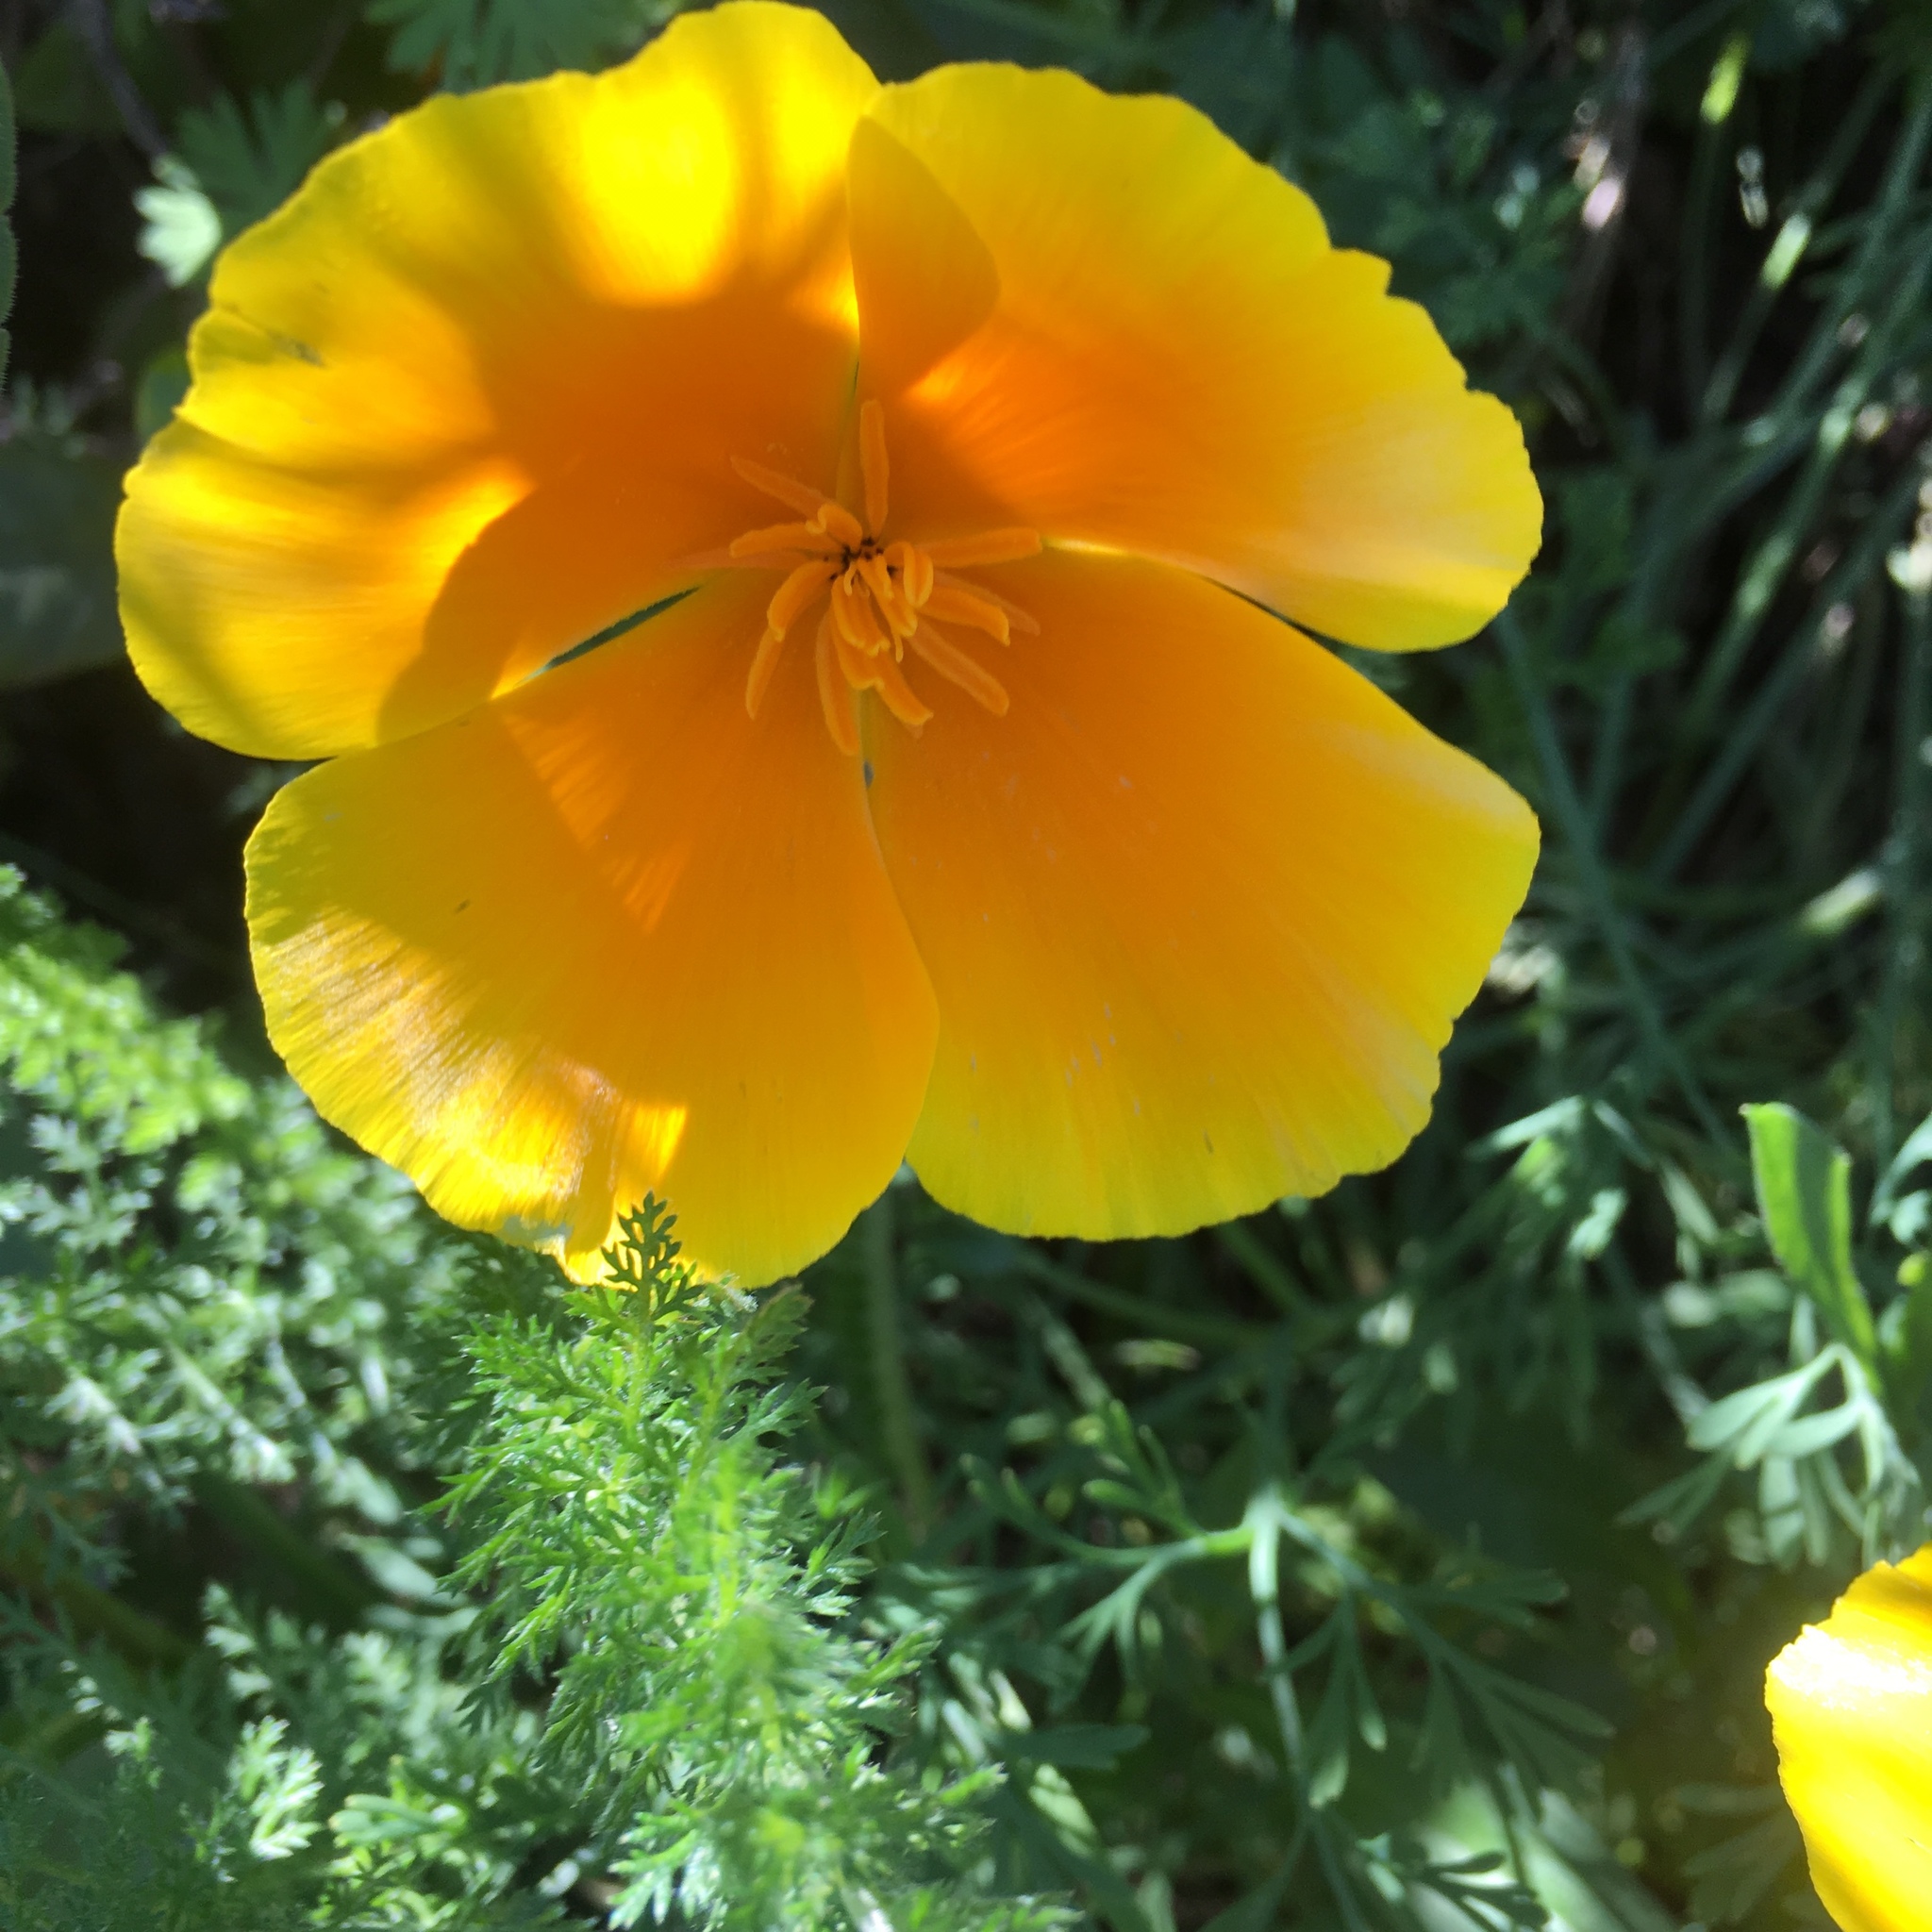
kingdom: Plantae
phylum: Tracheophyta
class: Magnoliopsida
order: Ranunculales
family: Papaveraceae
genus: Eschscholzia
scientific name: Eschscholzia californica
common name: California poppy
